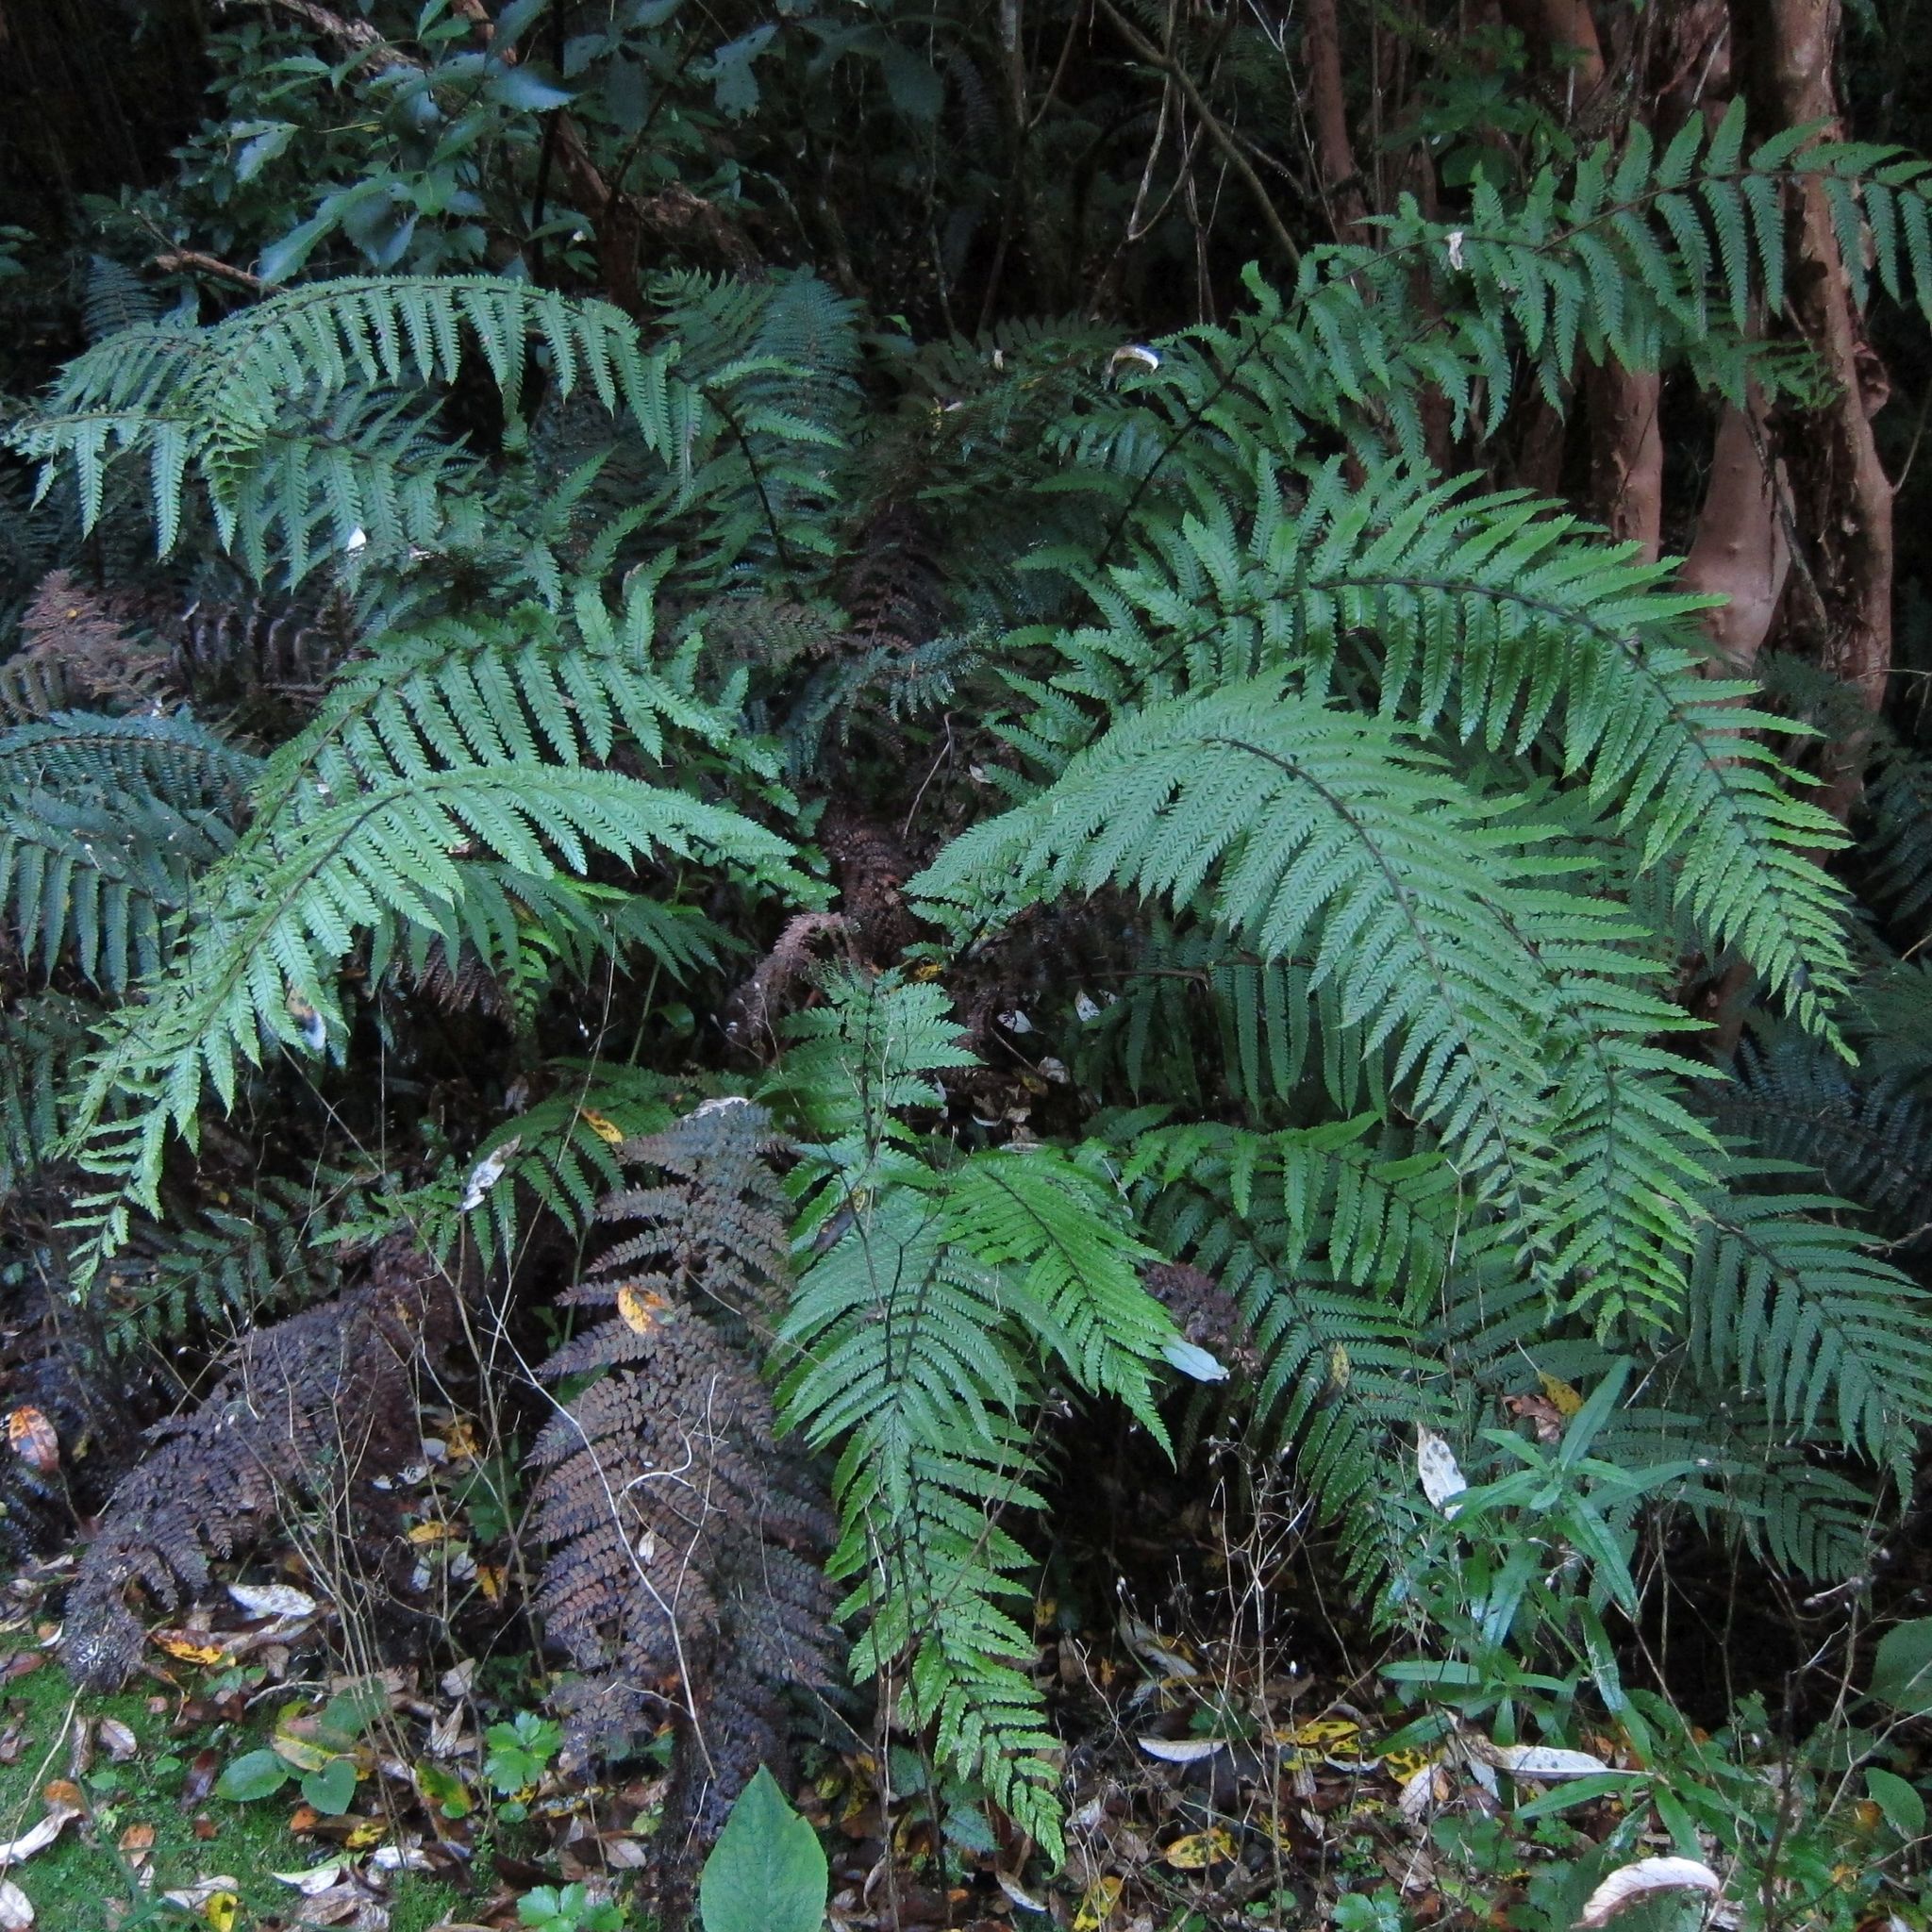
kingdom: Plantae
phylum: Tracheophyta
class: Polypodiopsida
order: Polypodiales
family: Thelypteridaceae
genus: Pakau
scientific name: Pakau pennigera
